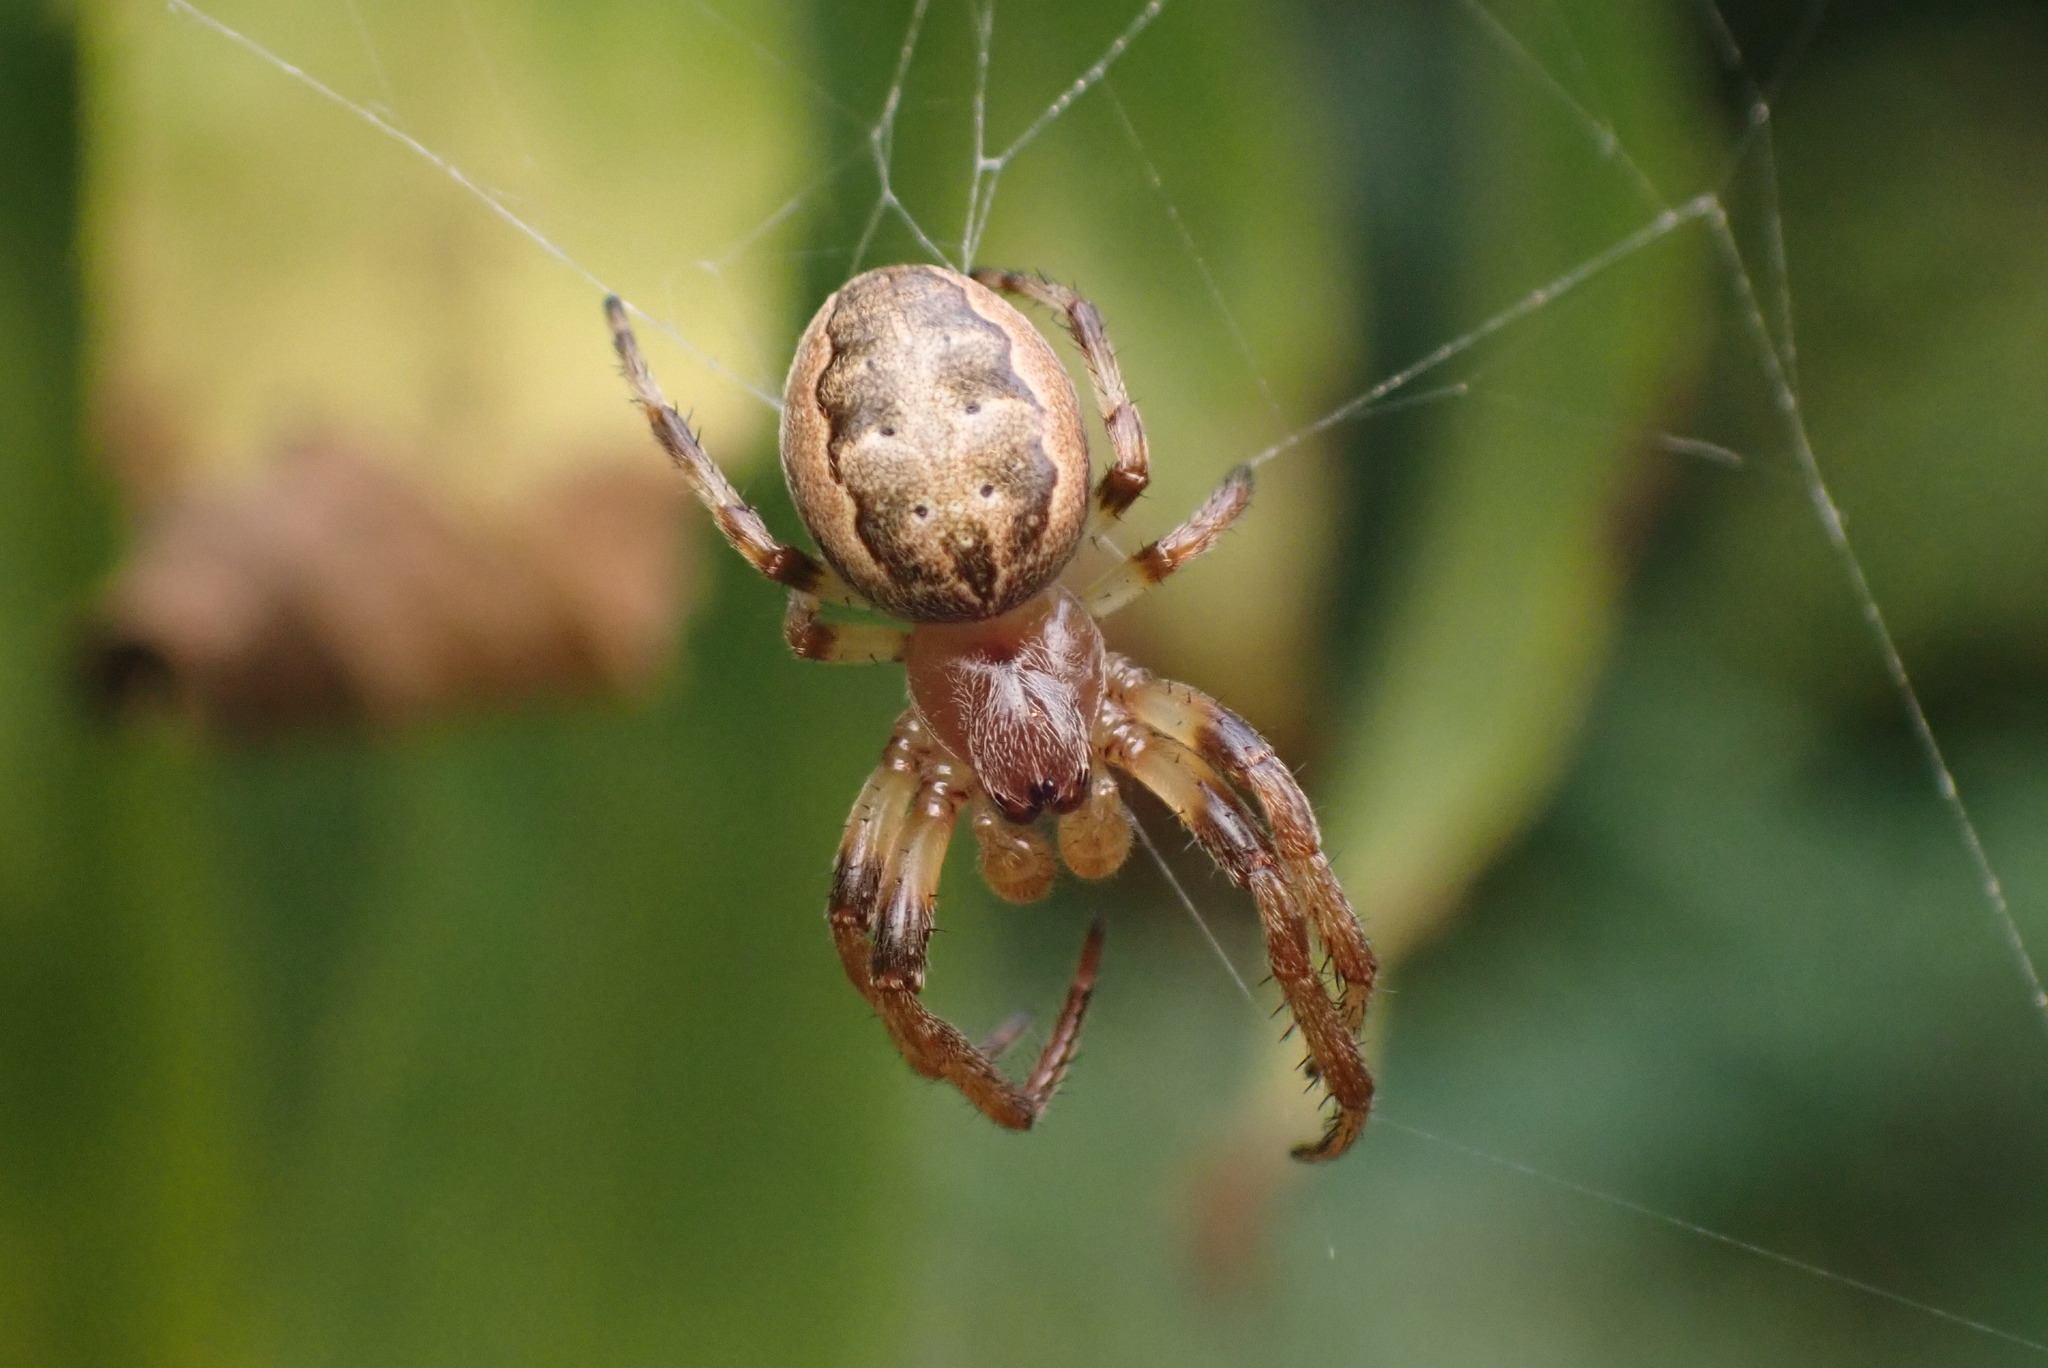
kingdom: Animalia
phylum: Arthropoda
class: Arachnida
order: Araneae
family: Araneidae
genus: Larinioides
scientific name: Larinioides cornutus
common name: Furrow orbweaver
